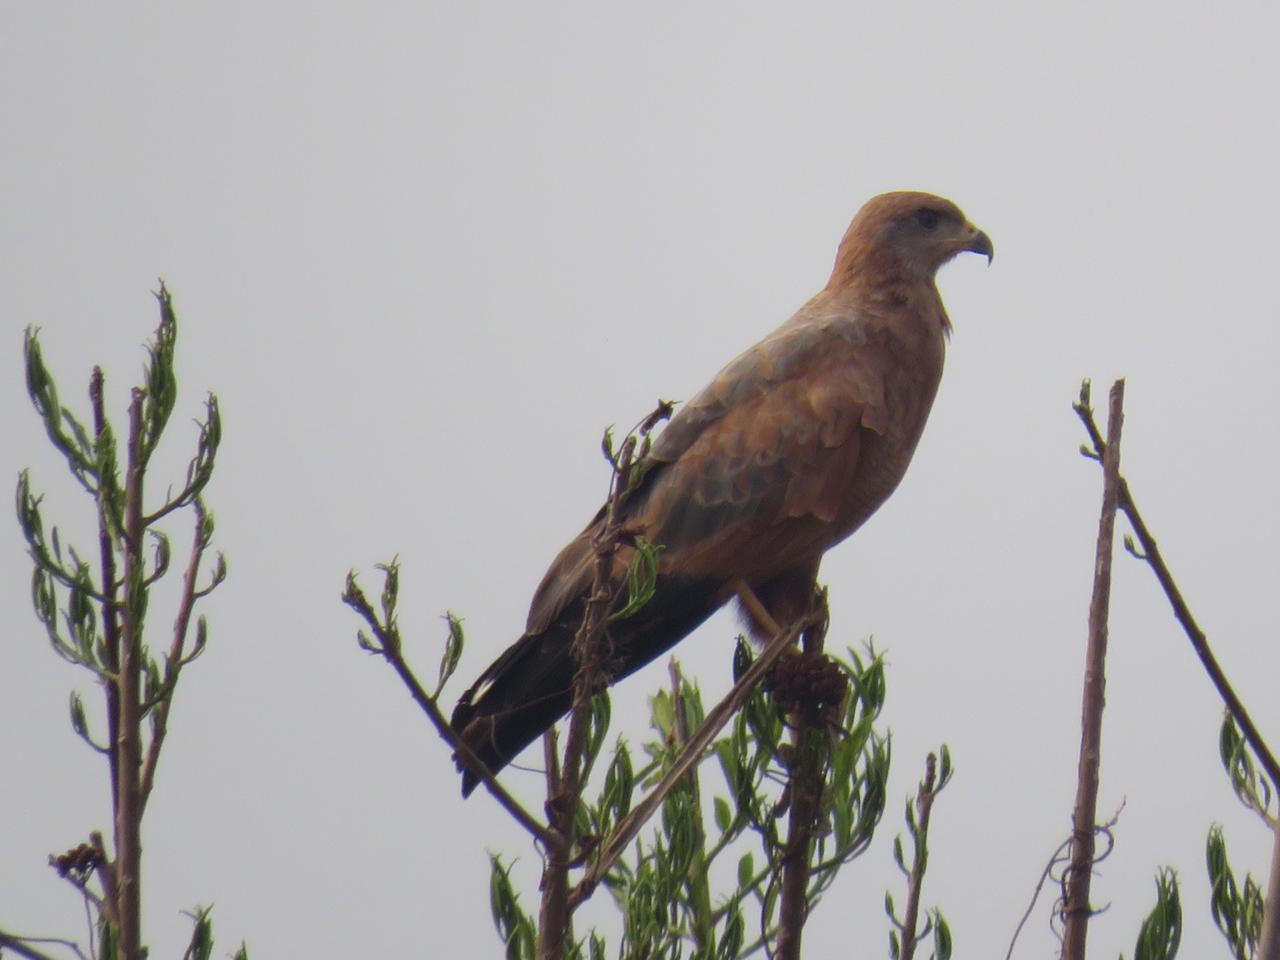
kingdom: Animalia
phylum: Chordata
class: Aves
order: Accipitriformes
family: Accipitridae
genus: Buteogallus
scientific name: Buteogallus meridionalis
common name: Savanna hawk
